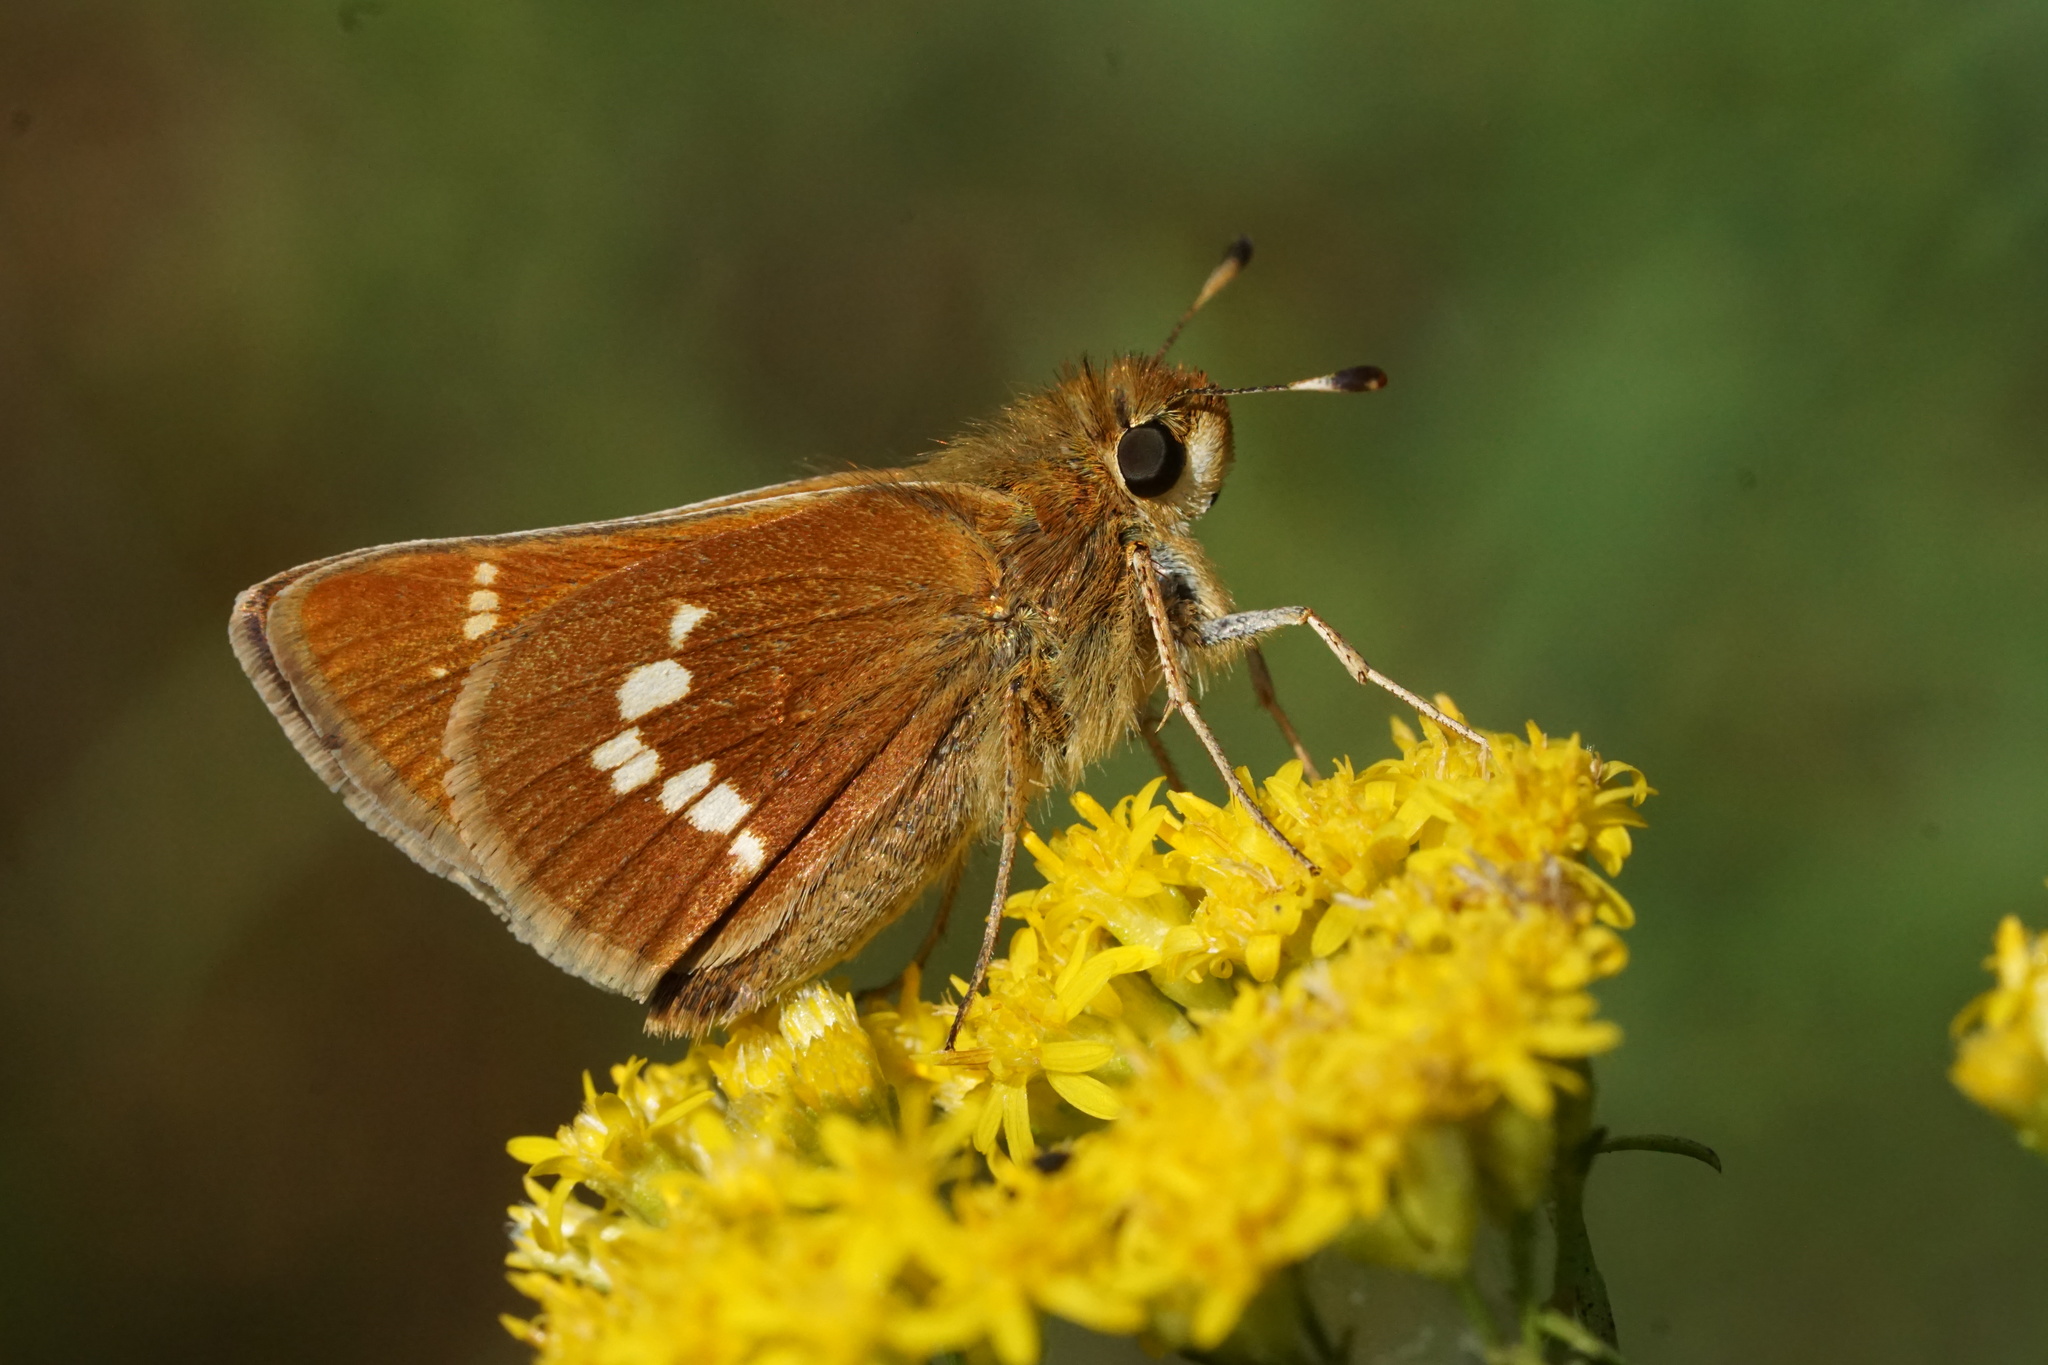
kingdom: Animalia
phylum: Arthropoda
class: Insecta
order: Lepidoptera
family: Hesperiidae
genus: Hesperia
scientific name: Hesperia leonardus
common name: Leonard's skipper
